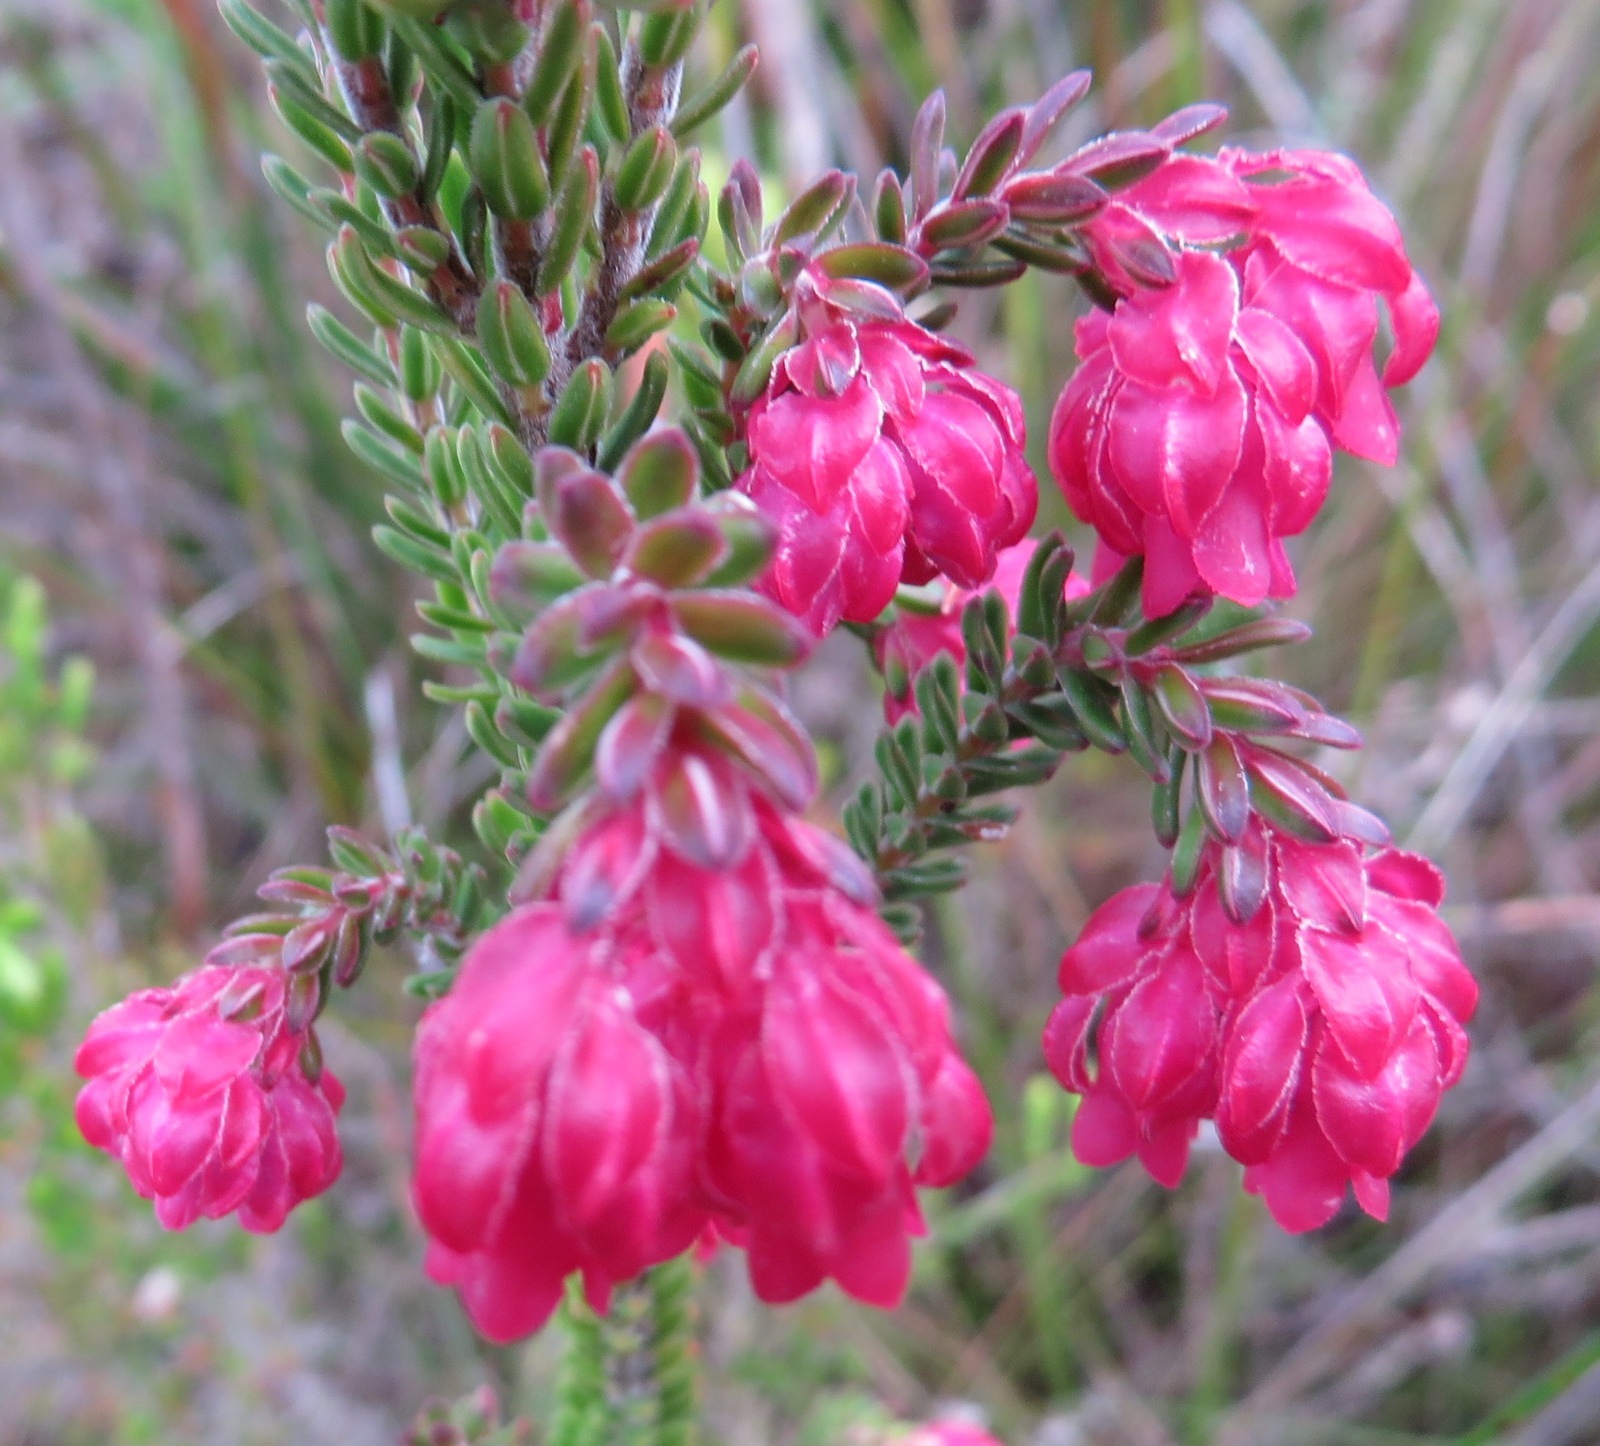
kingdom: Plantae
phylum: Tracheophyta
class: Magnoliopsida
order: Ericales
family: Ericaceae
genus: Erica
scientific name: Erica tegulifolia
